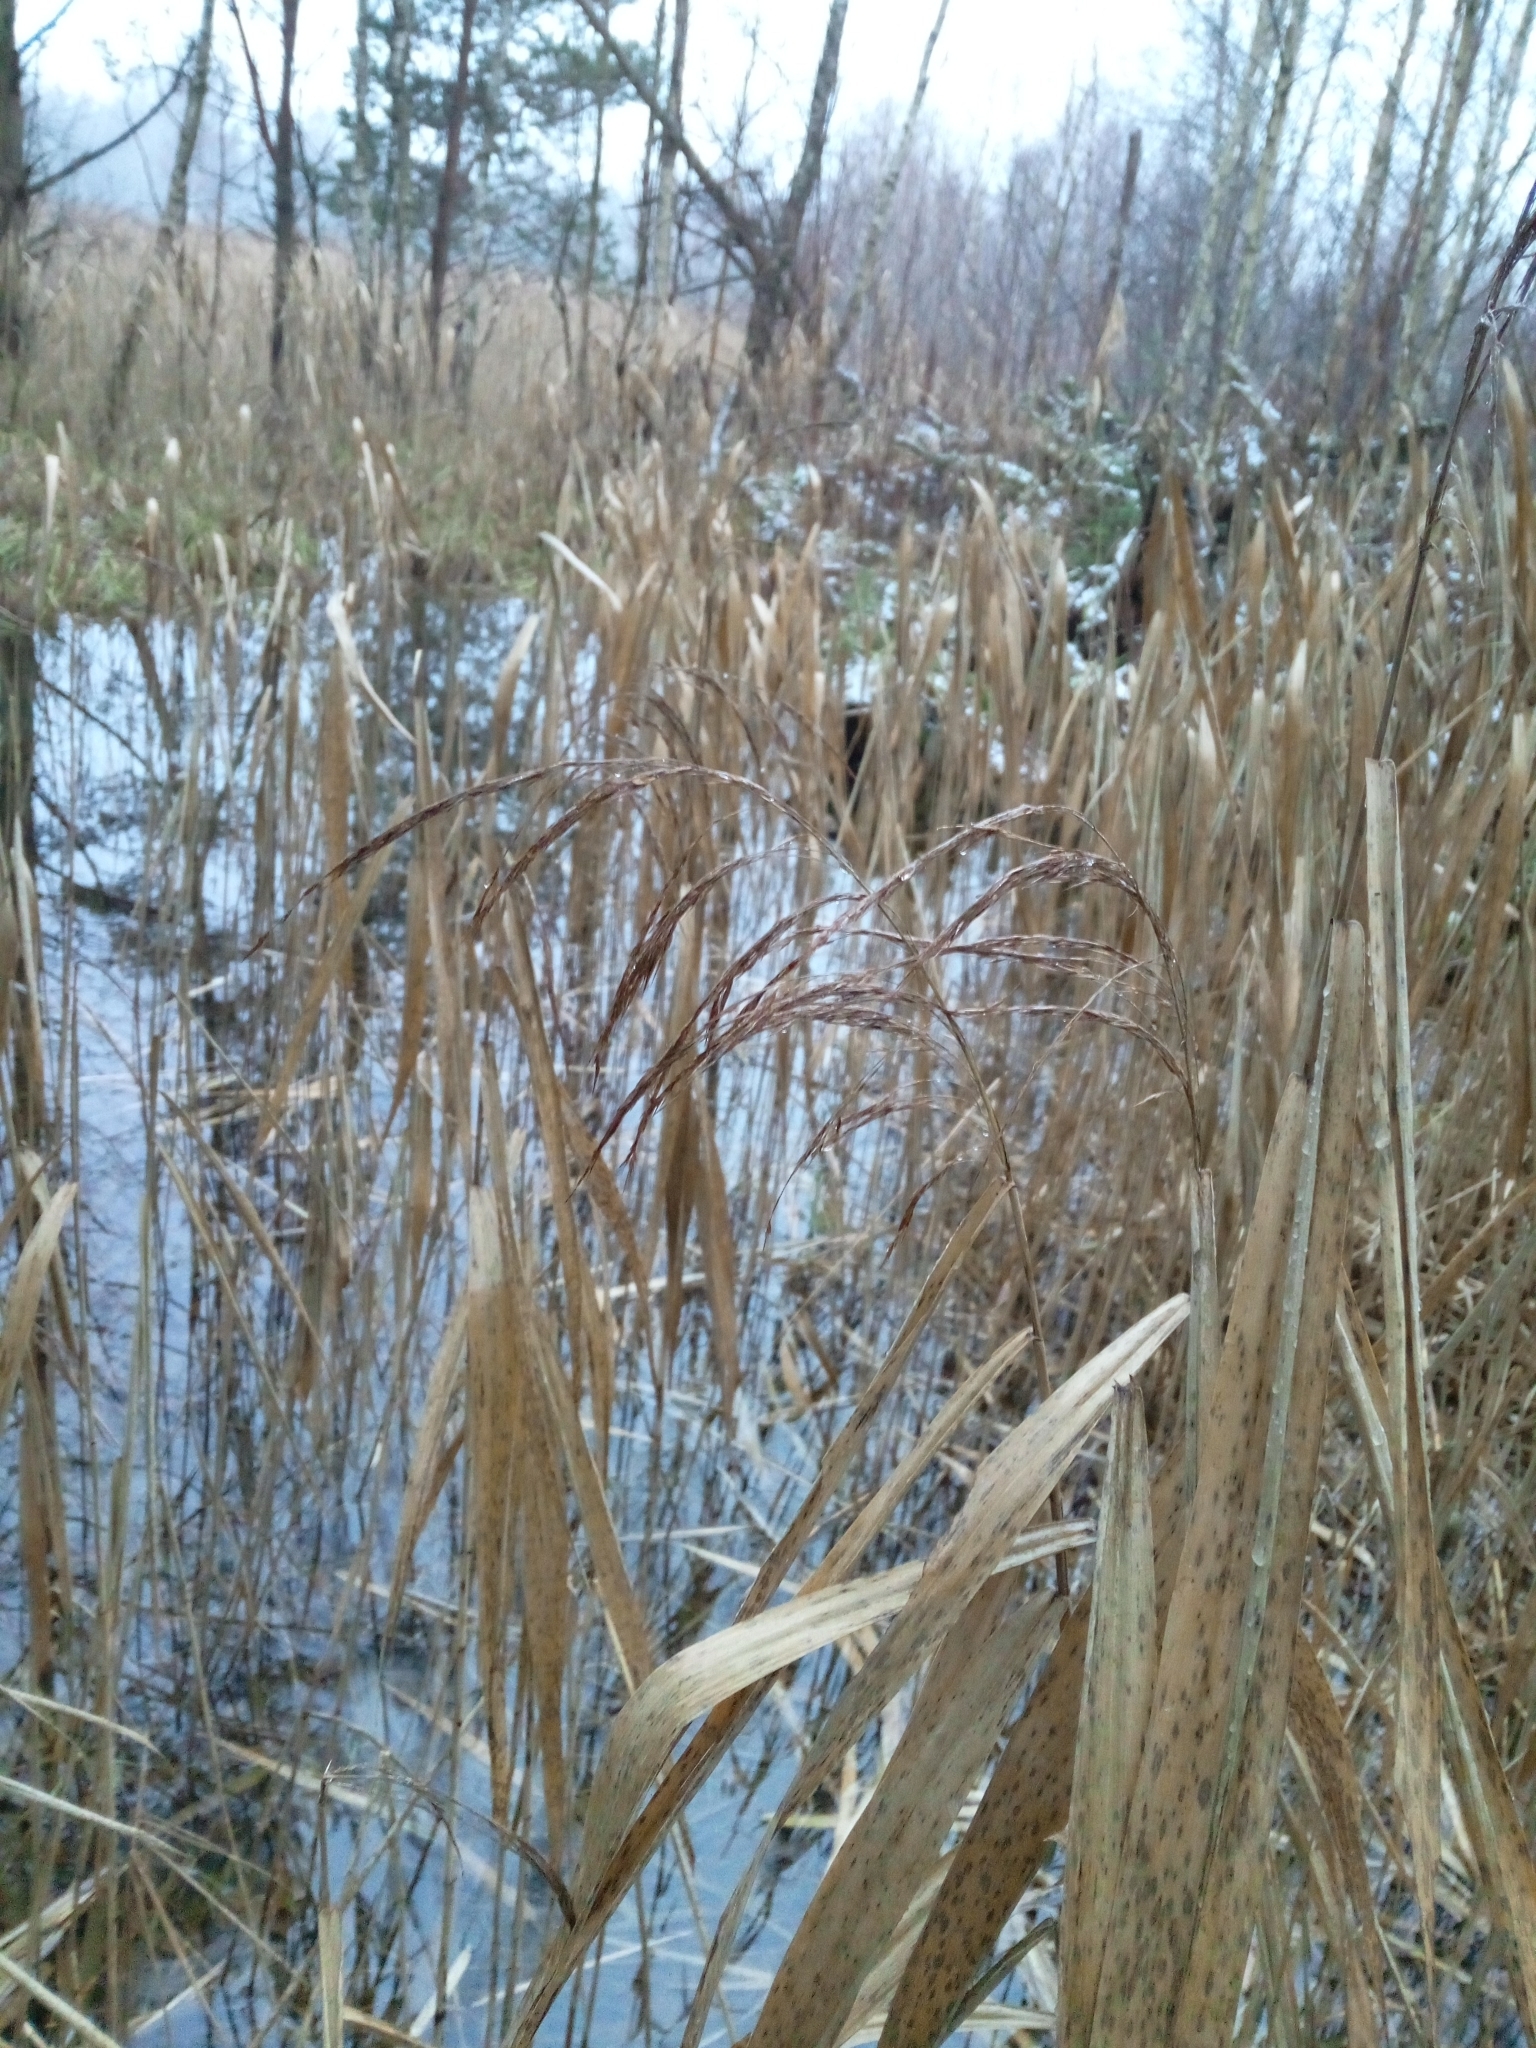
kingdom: Plantae
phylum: Tracheophyta
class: Liliopsida
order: Poales
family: Poaceae
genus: Phragmites
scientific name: Phragmites australis
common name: Common reed
